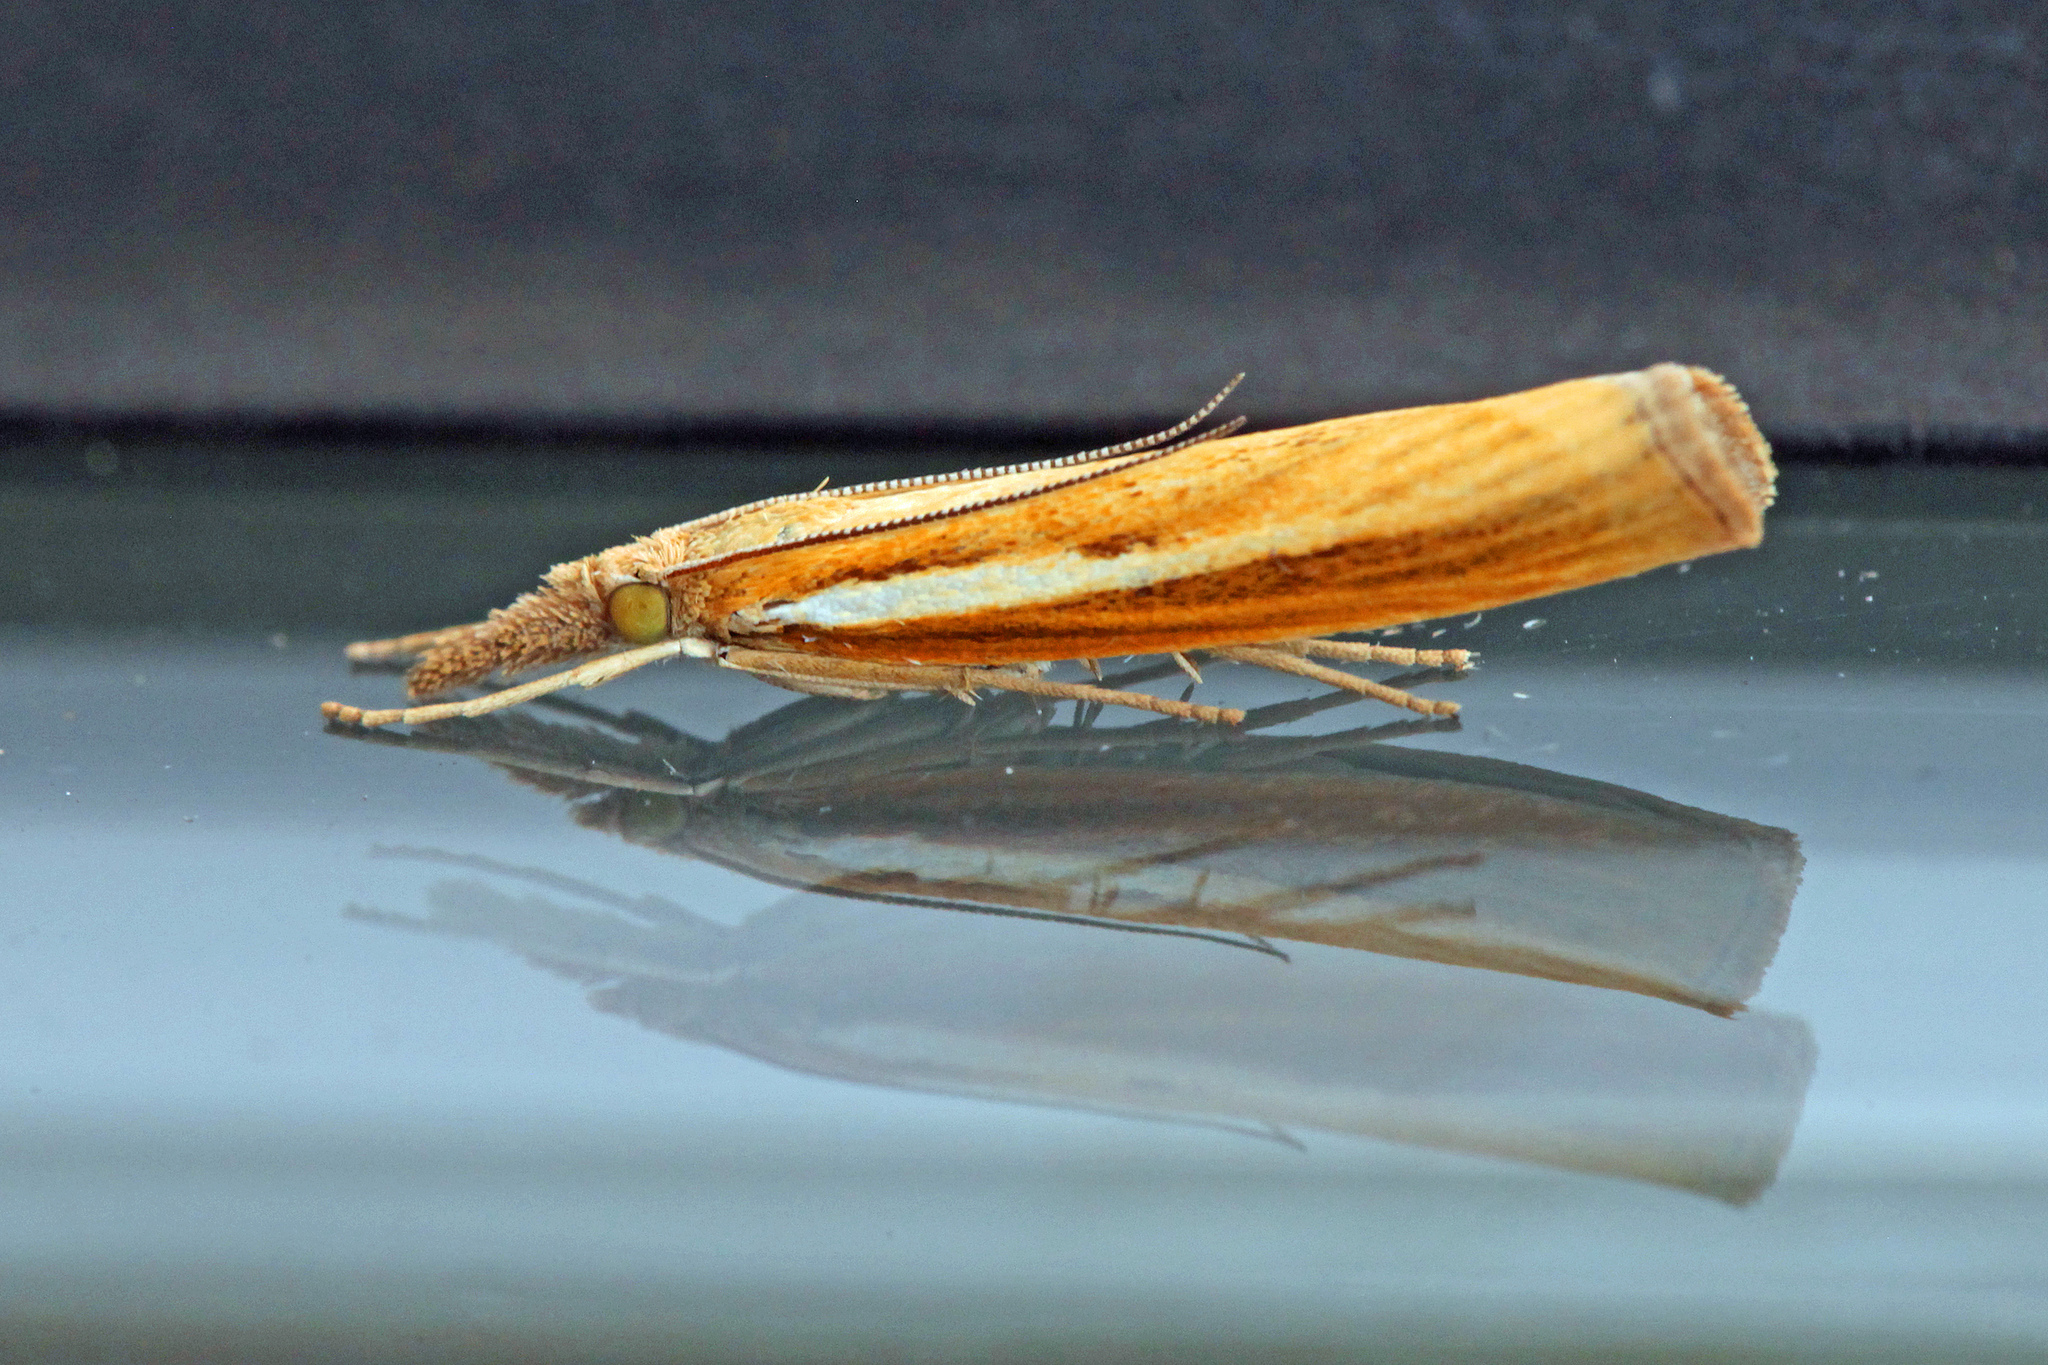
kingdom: Animalia
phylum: Arthropoda
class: Insecta
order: Lepidoptera
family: Crambidae
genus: Agriphila
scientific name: Agriphila tristellus
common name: Common grass-veneer
